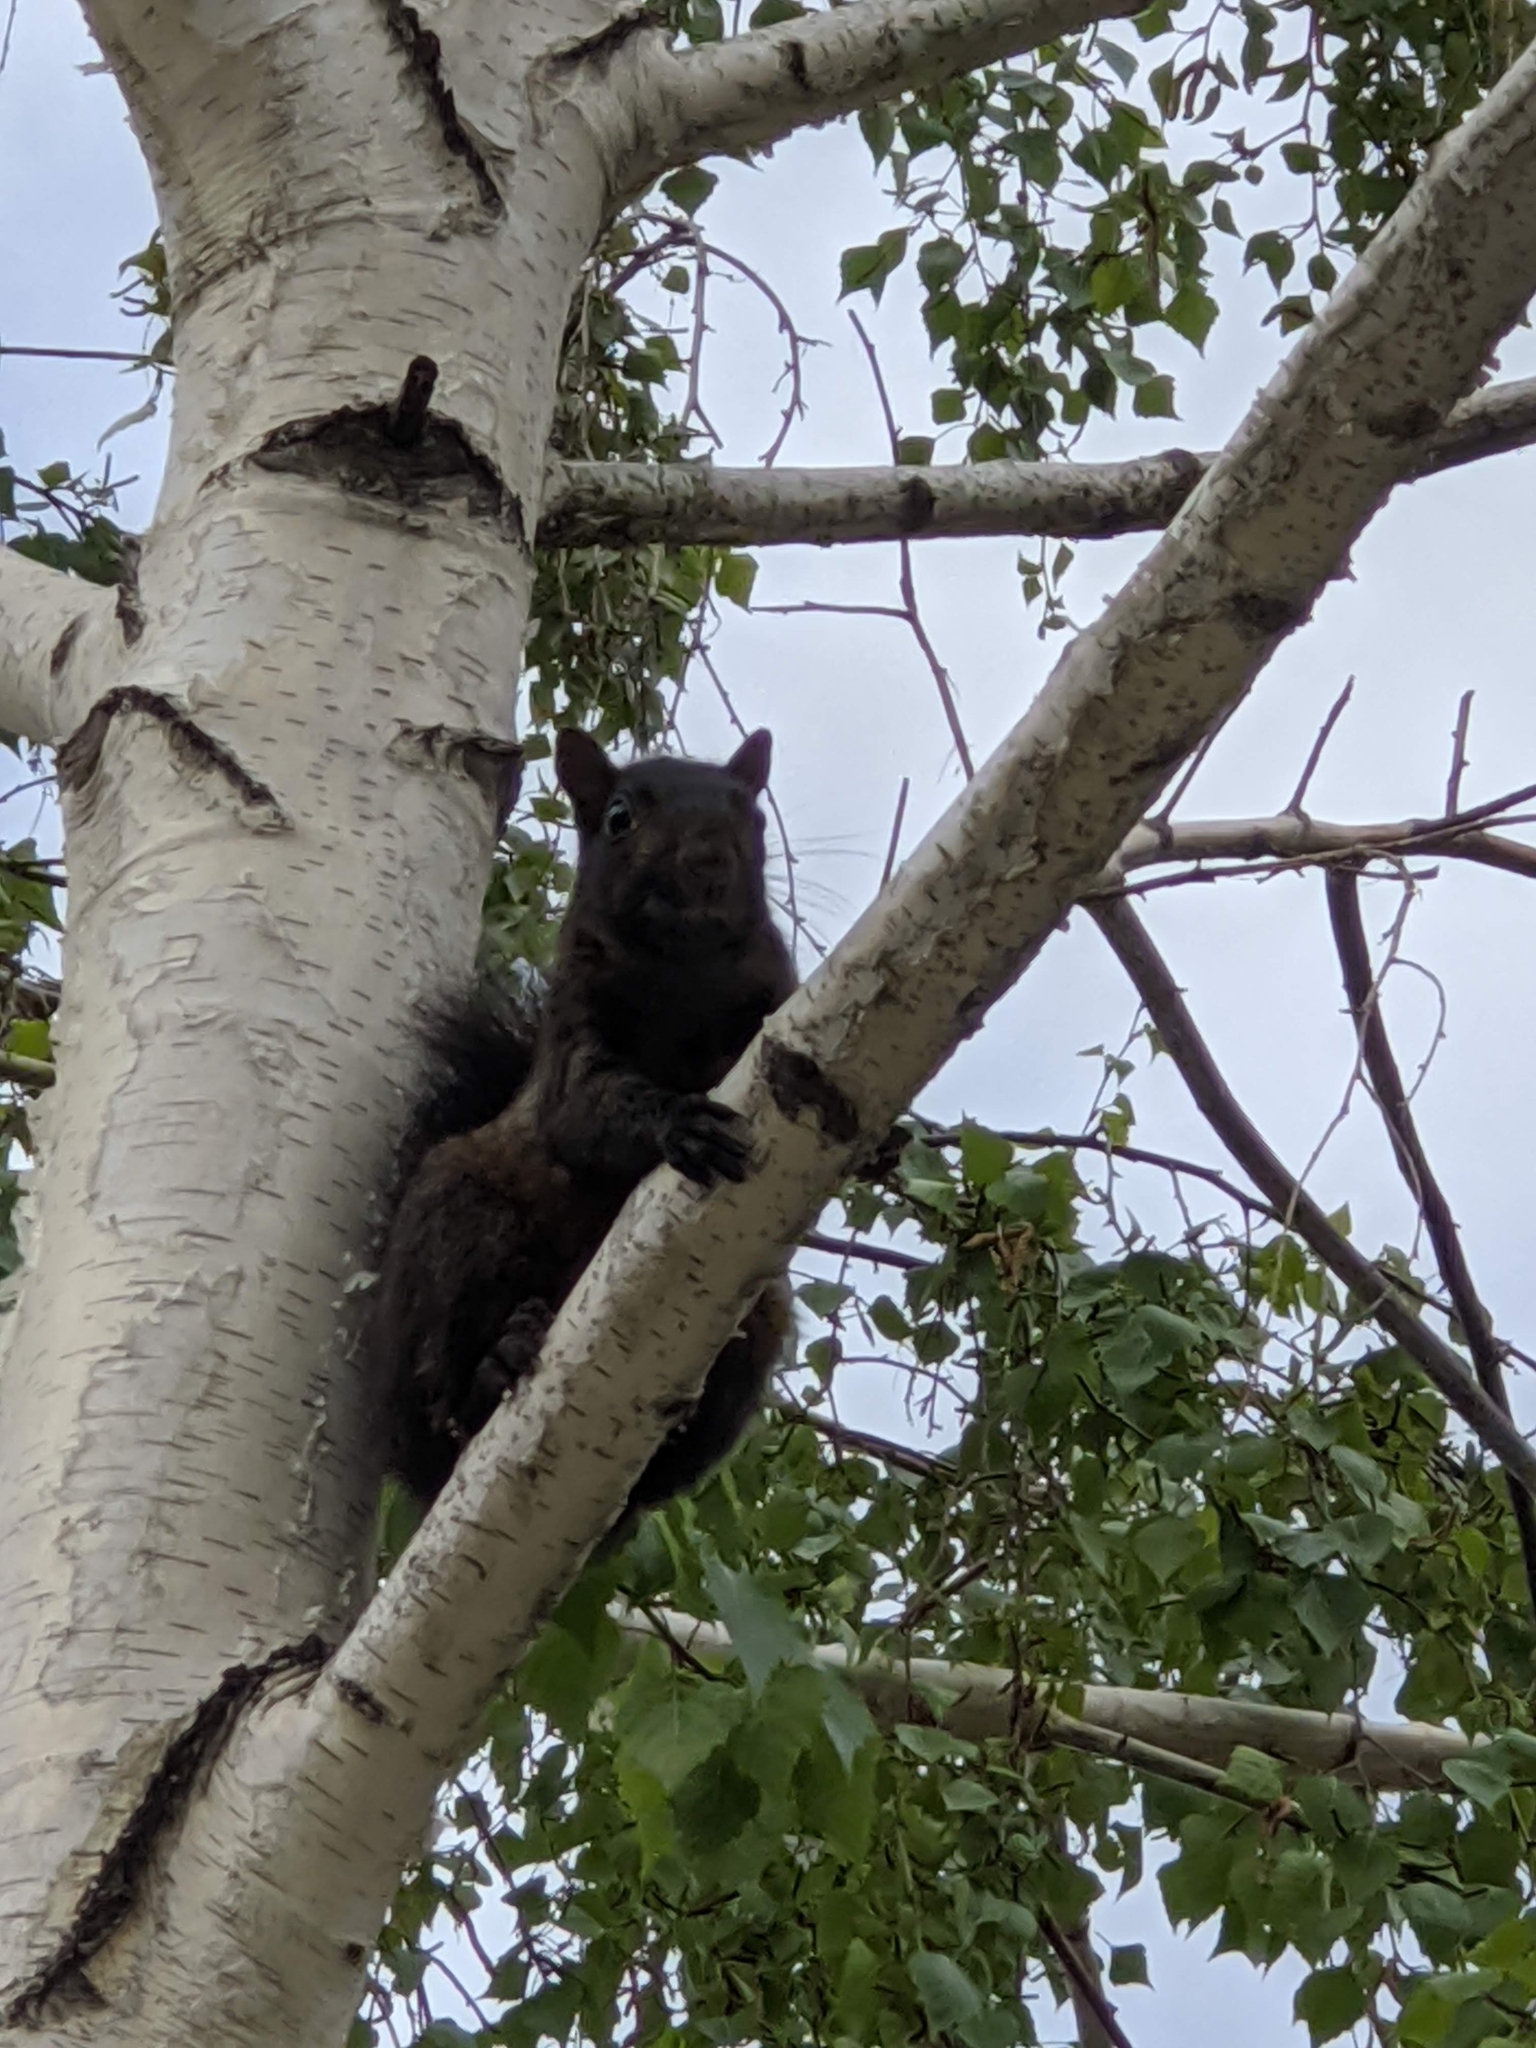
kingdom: Animalia
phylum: Chordata
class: Mammalia
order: Rodentia
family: Sciuridae
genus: Sciurus
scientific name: Sciurus carolinensis
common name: Eastern gray squirrel
